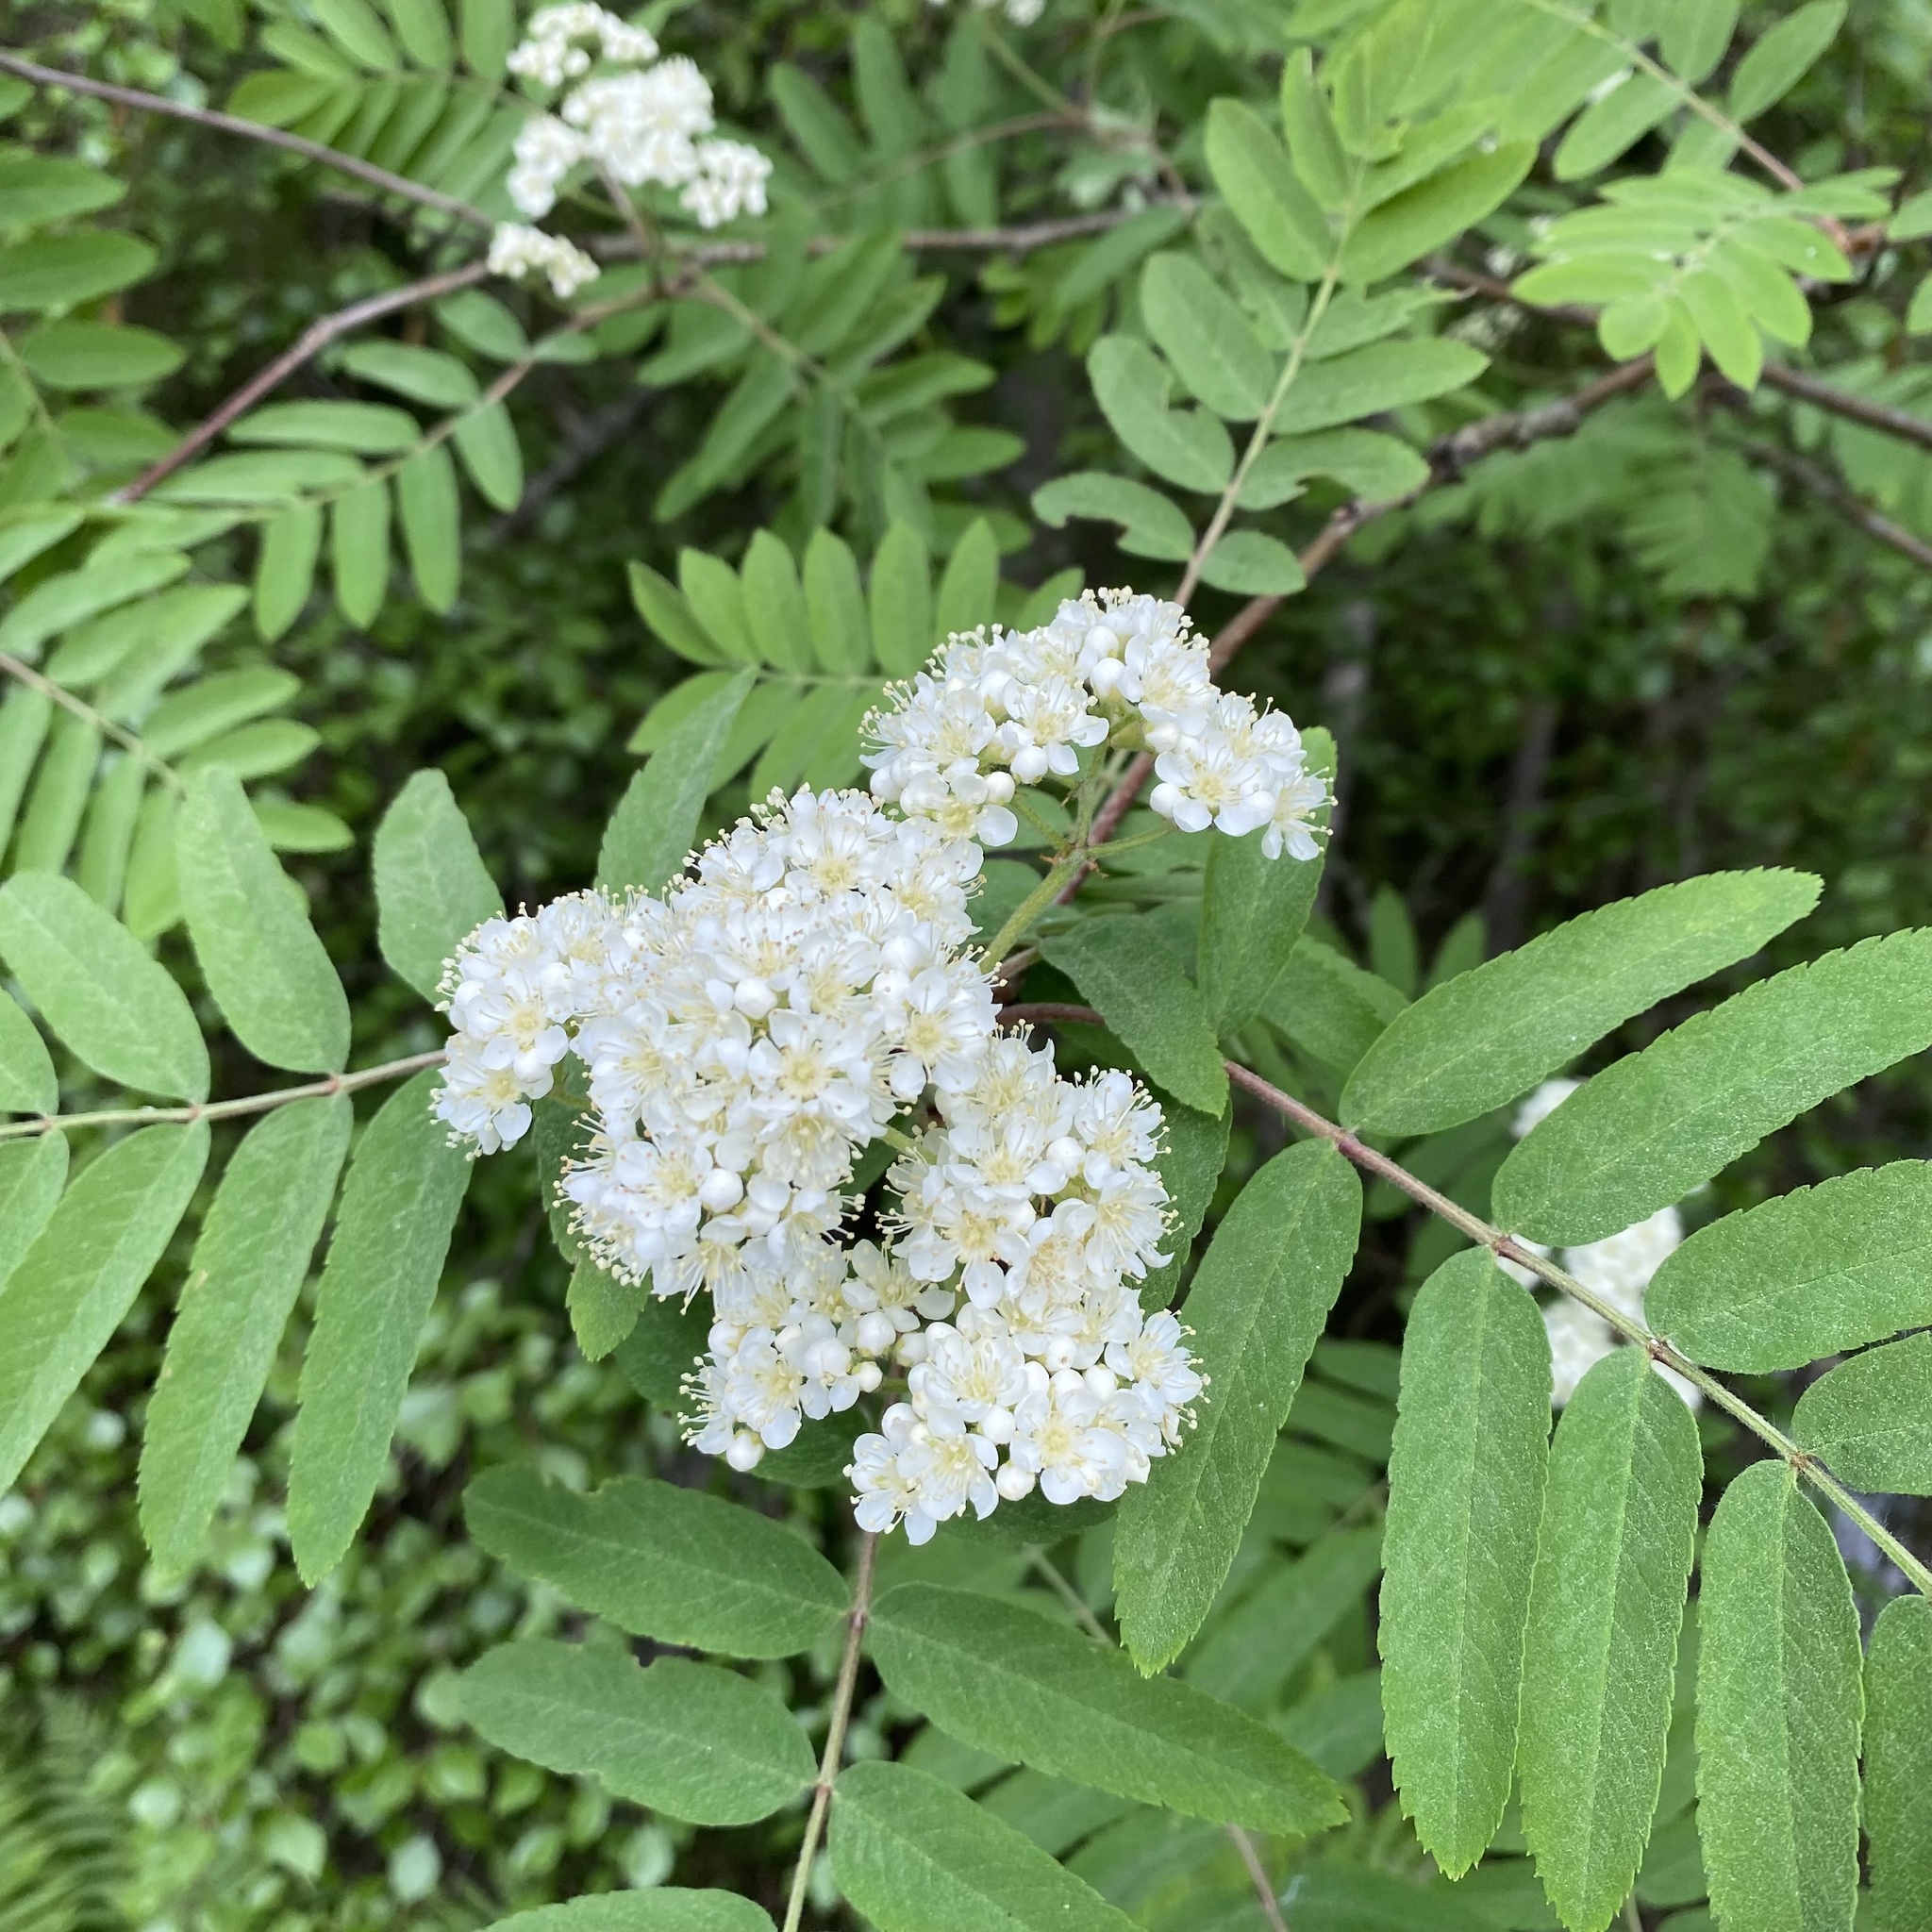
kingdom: Plantae
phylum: Tracheophyta
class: Magnoliopsida
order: Rosales
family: Rosaceae
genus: Sorbus
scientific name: Sorbus aucuparia
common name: Rowan
